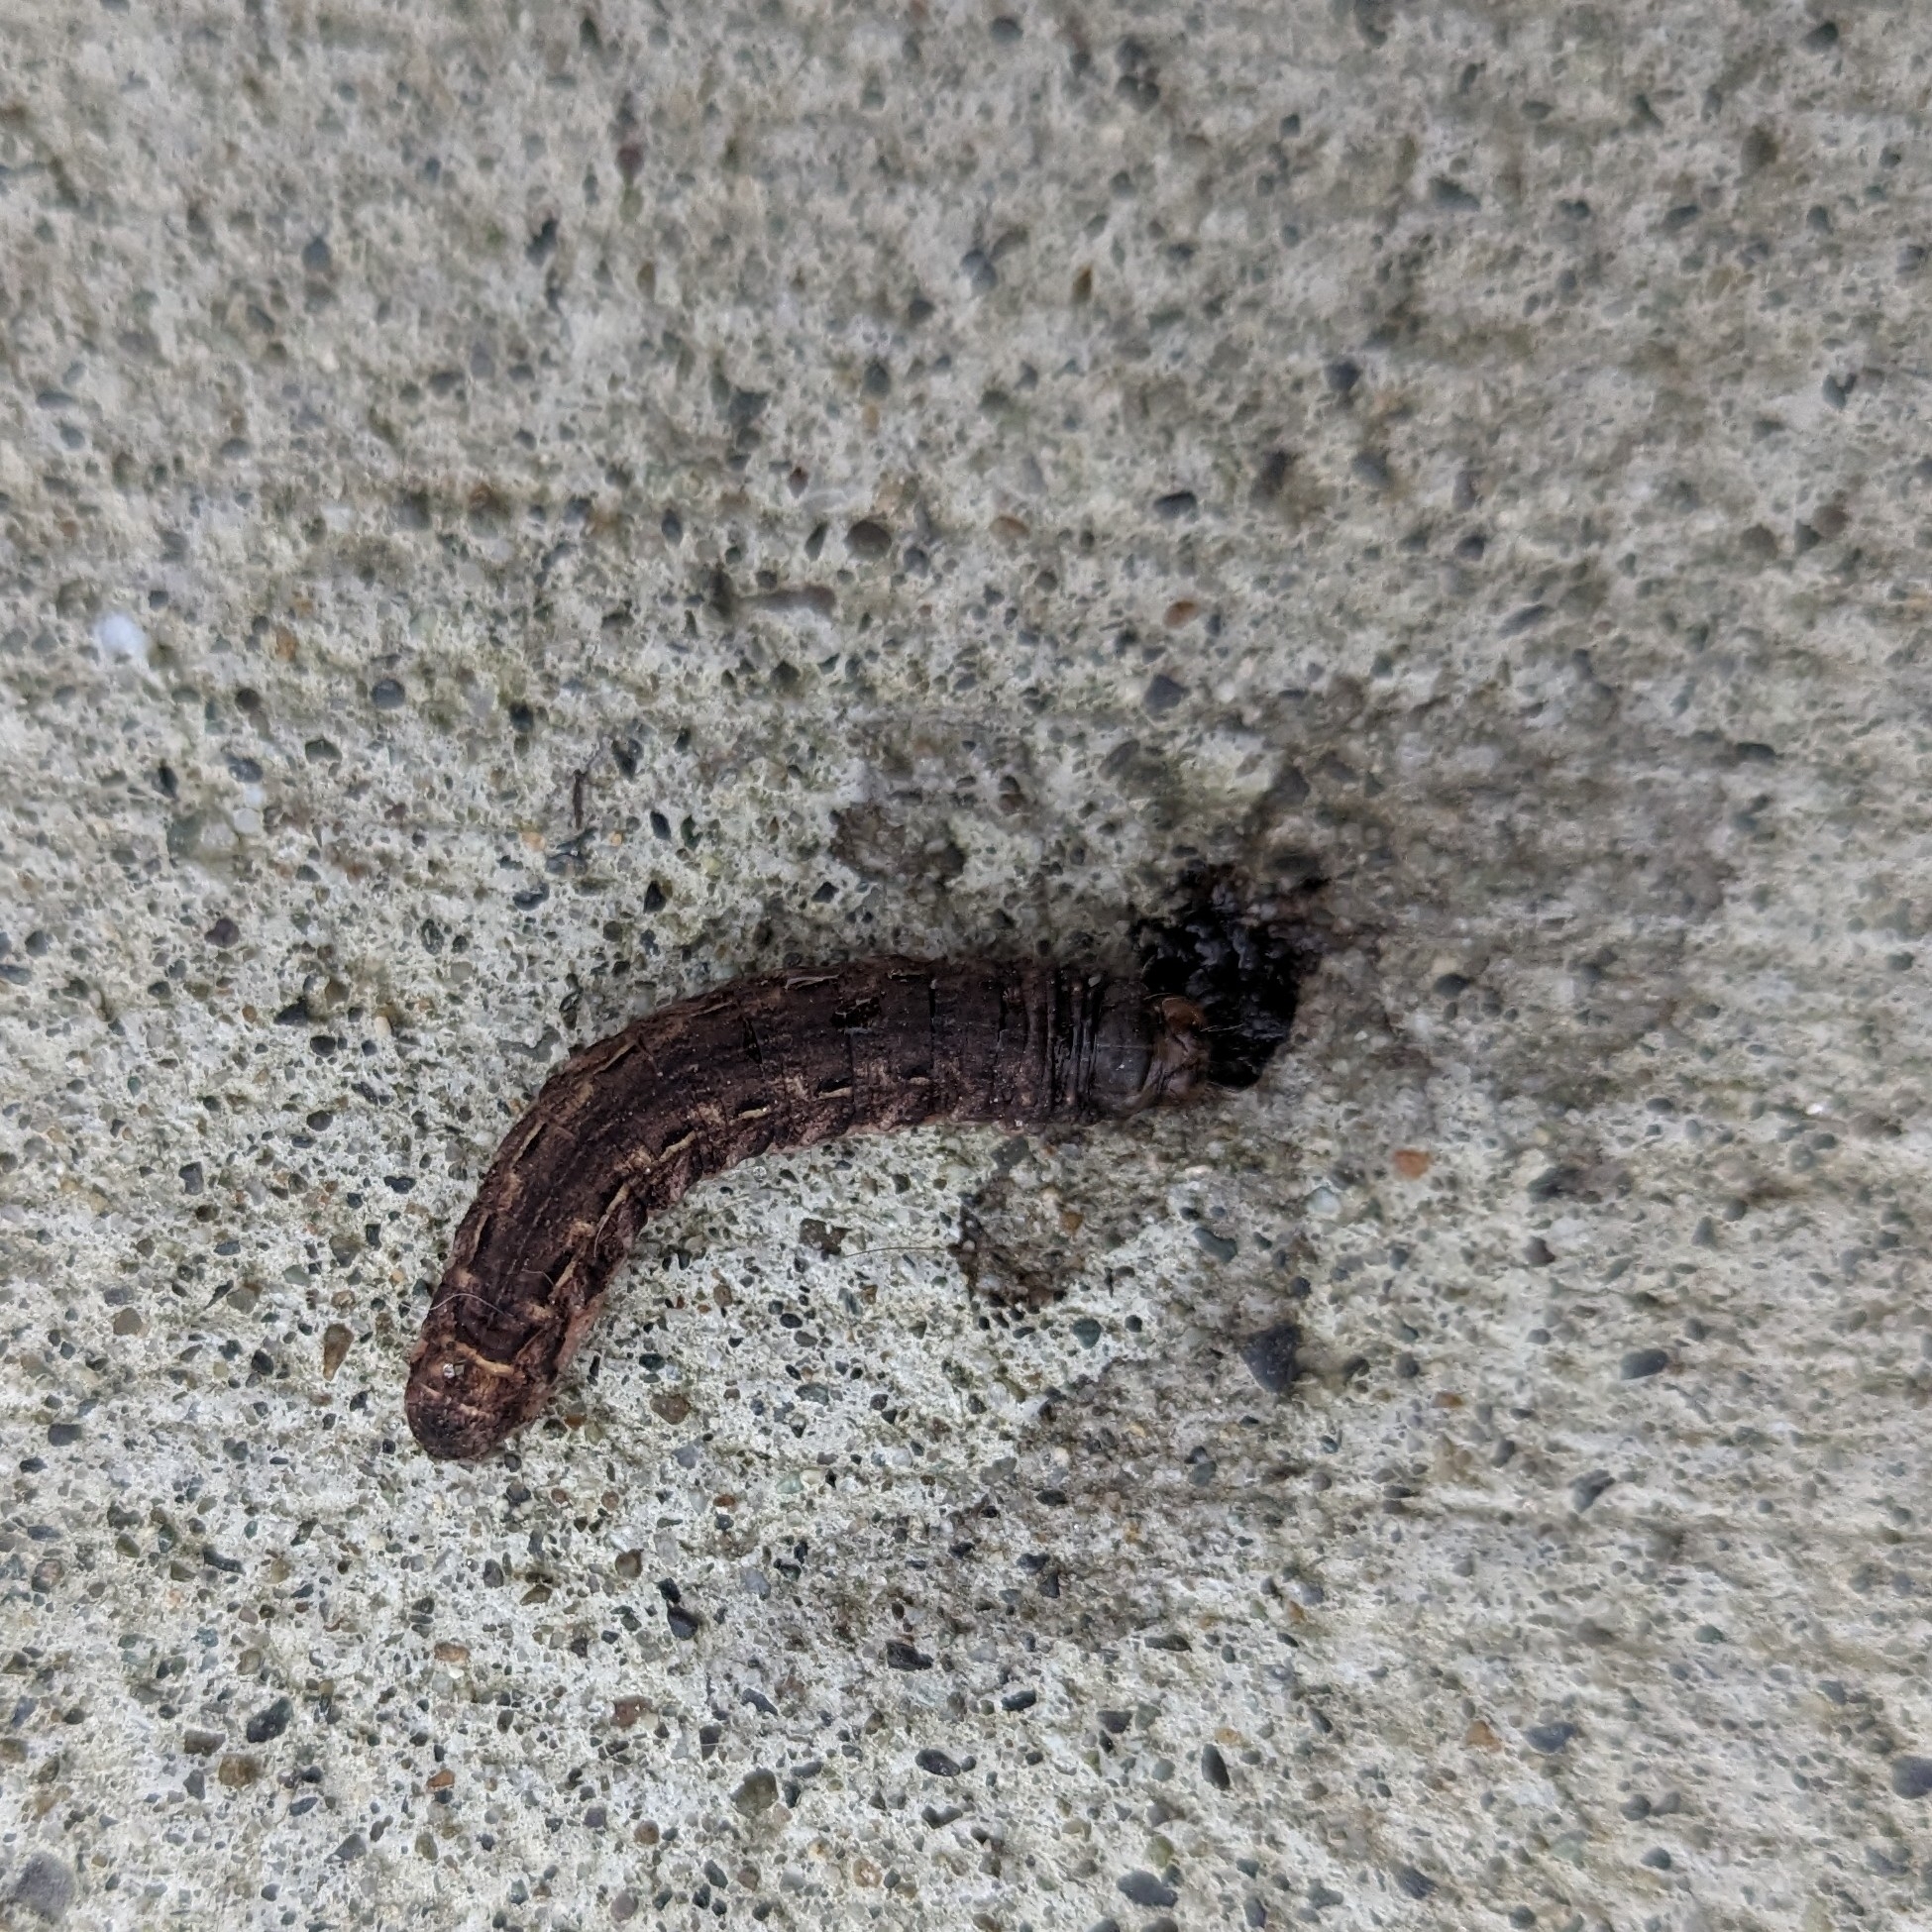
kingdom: Animalia
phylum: Arthropoda
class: Insecta
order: Lepidoptera
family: Noctuidae
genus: Noctua
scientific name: Noctua pronuba
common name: Large yellow underwing
